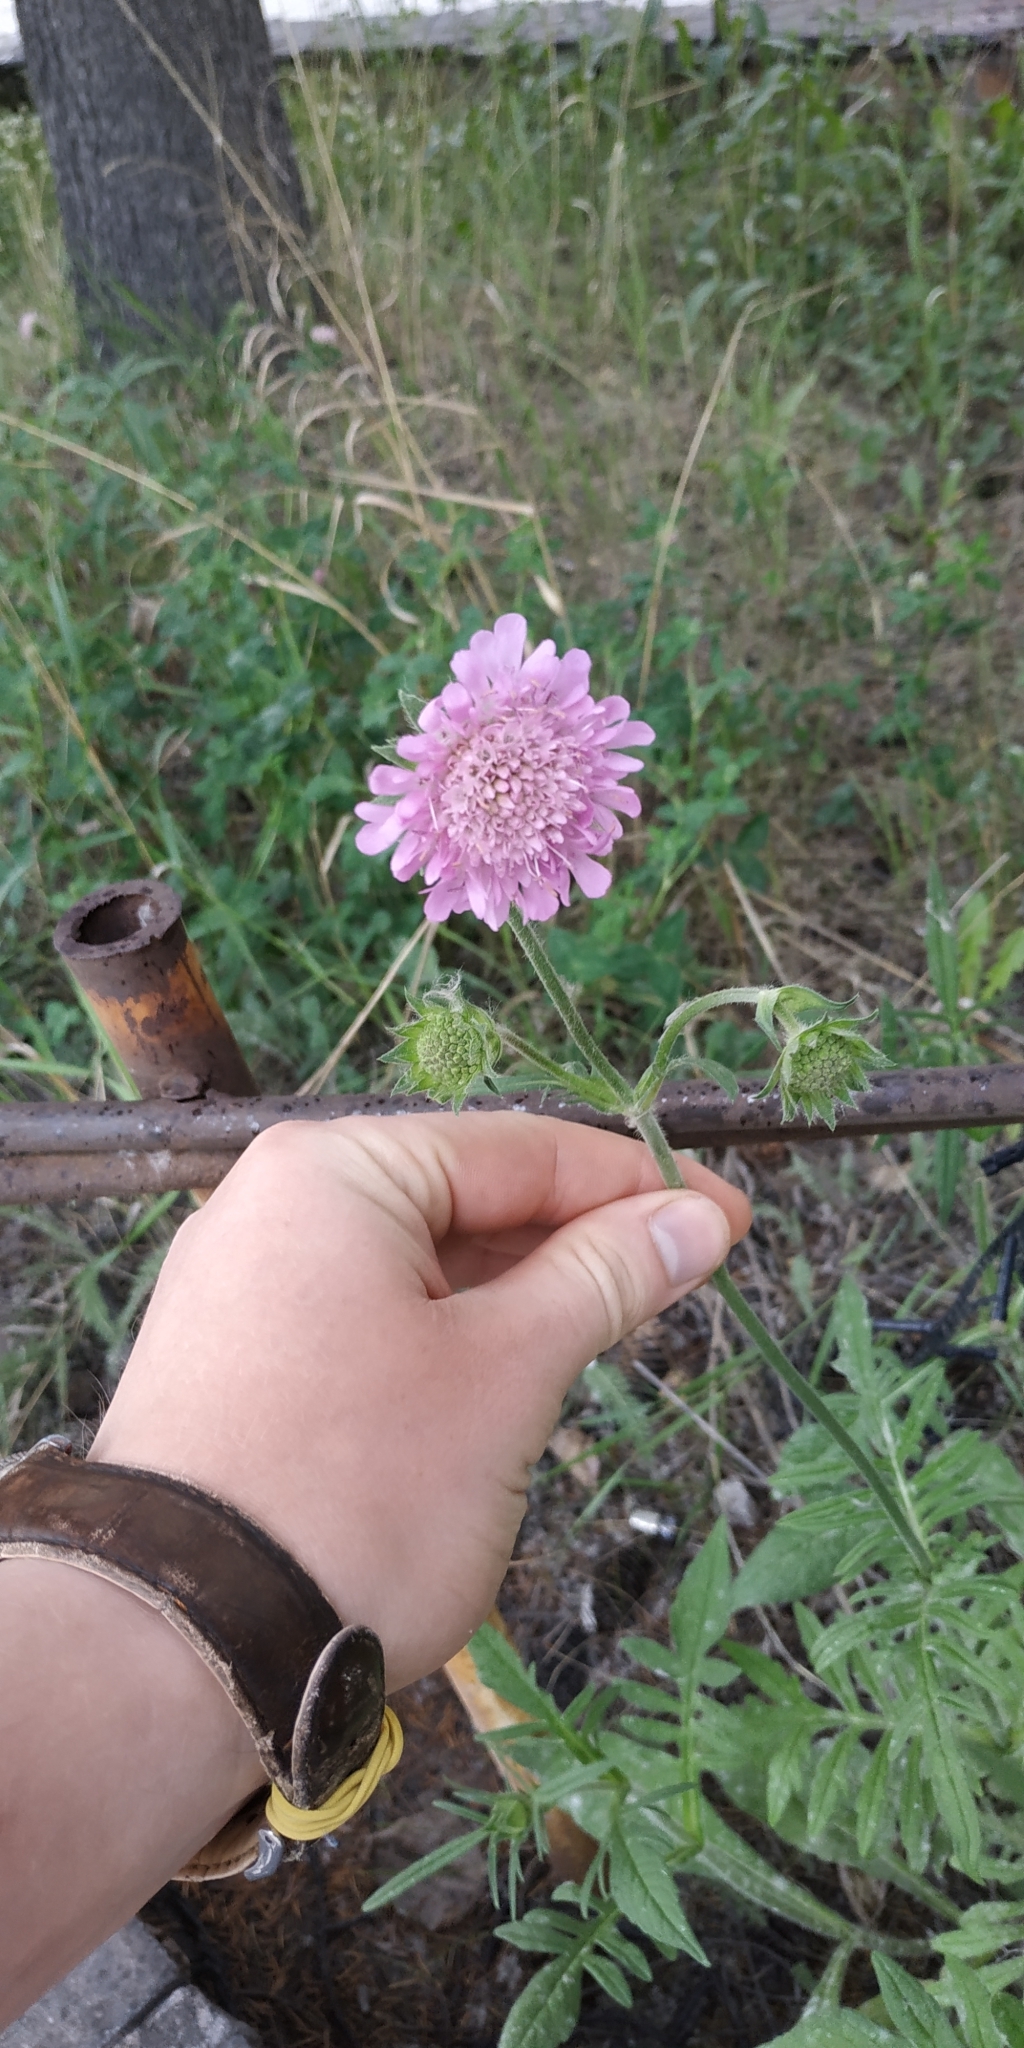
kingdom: Plantae
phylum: Tracheophyta
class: Magnoliopsida
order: Dipsacales
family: Caprifoliaceae
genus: Knautia
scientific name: Knautia arvensis
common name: Field scabiosa
